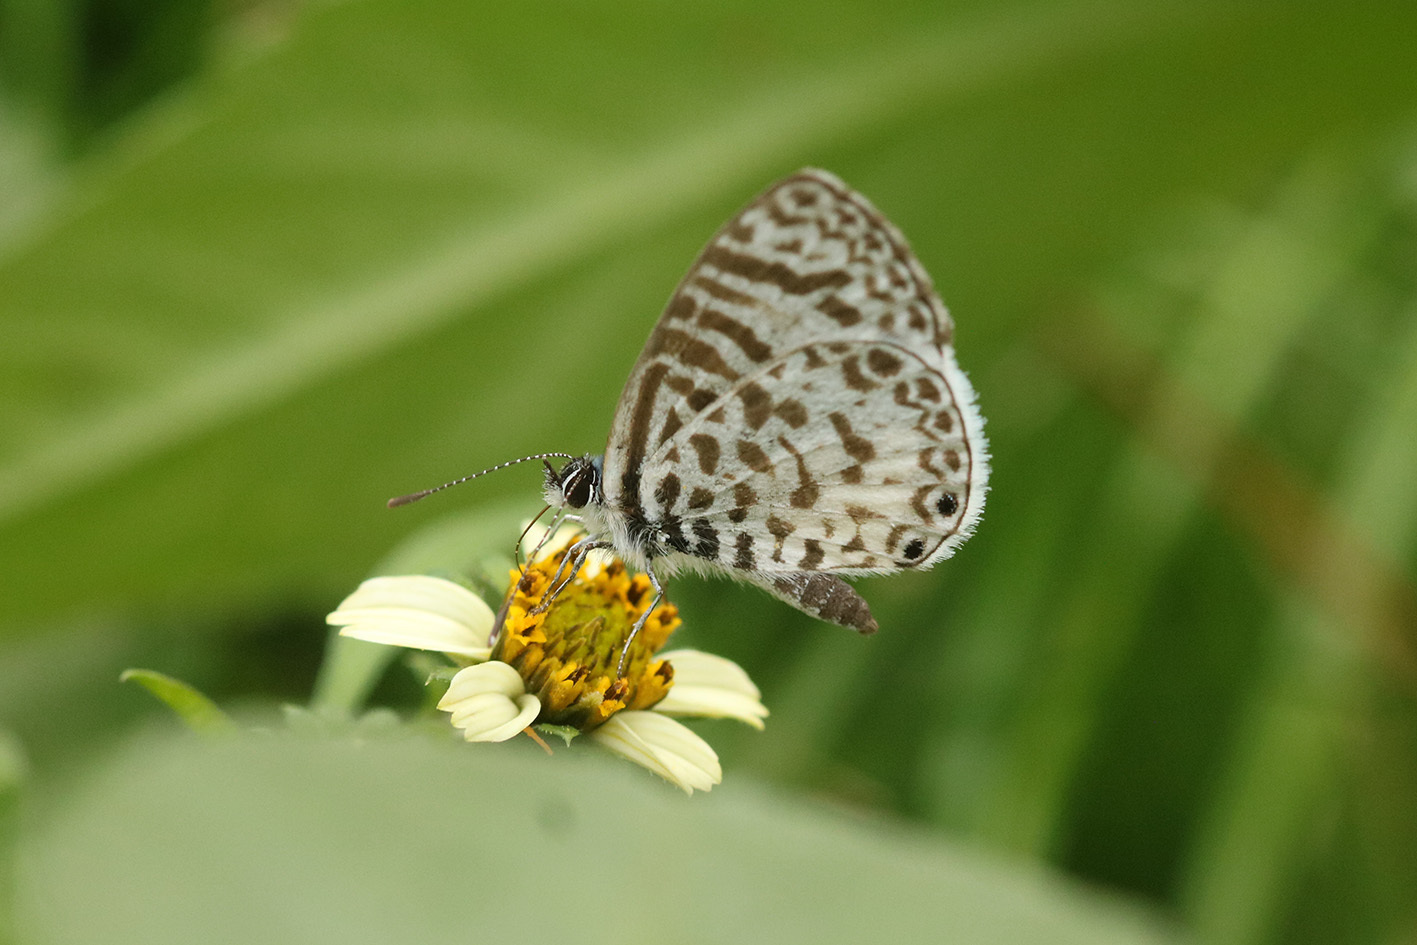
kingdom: Animalia
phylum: Arthropoda
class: Insecta
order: Lepidoptera
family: Lycaenidae
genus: Leptotes
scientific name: Leptotes cassius
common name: Cassius blue
